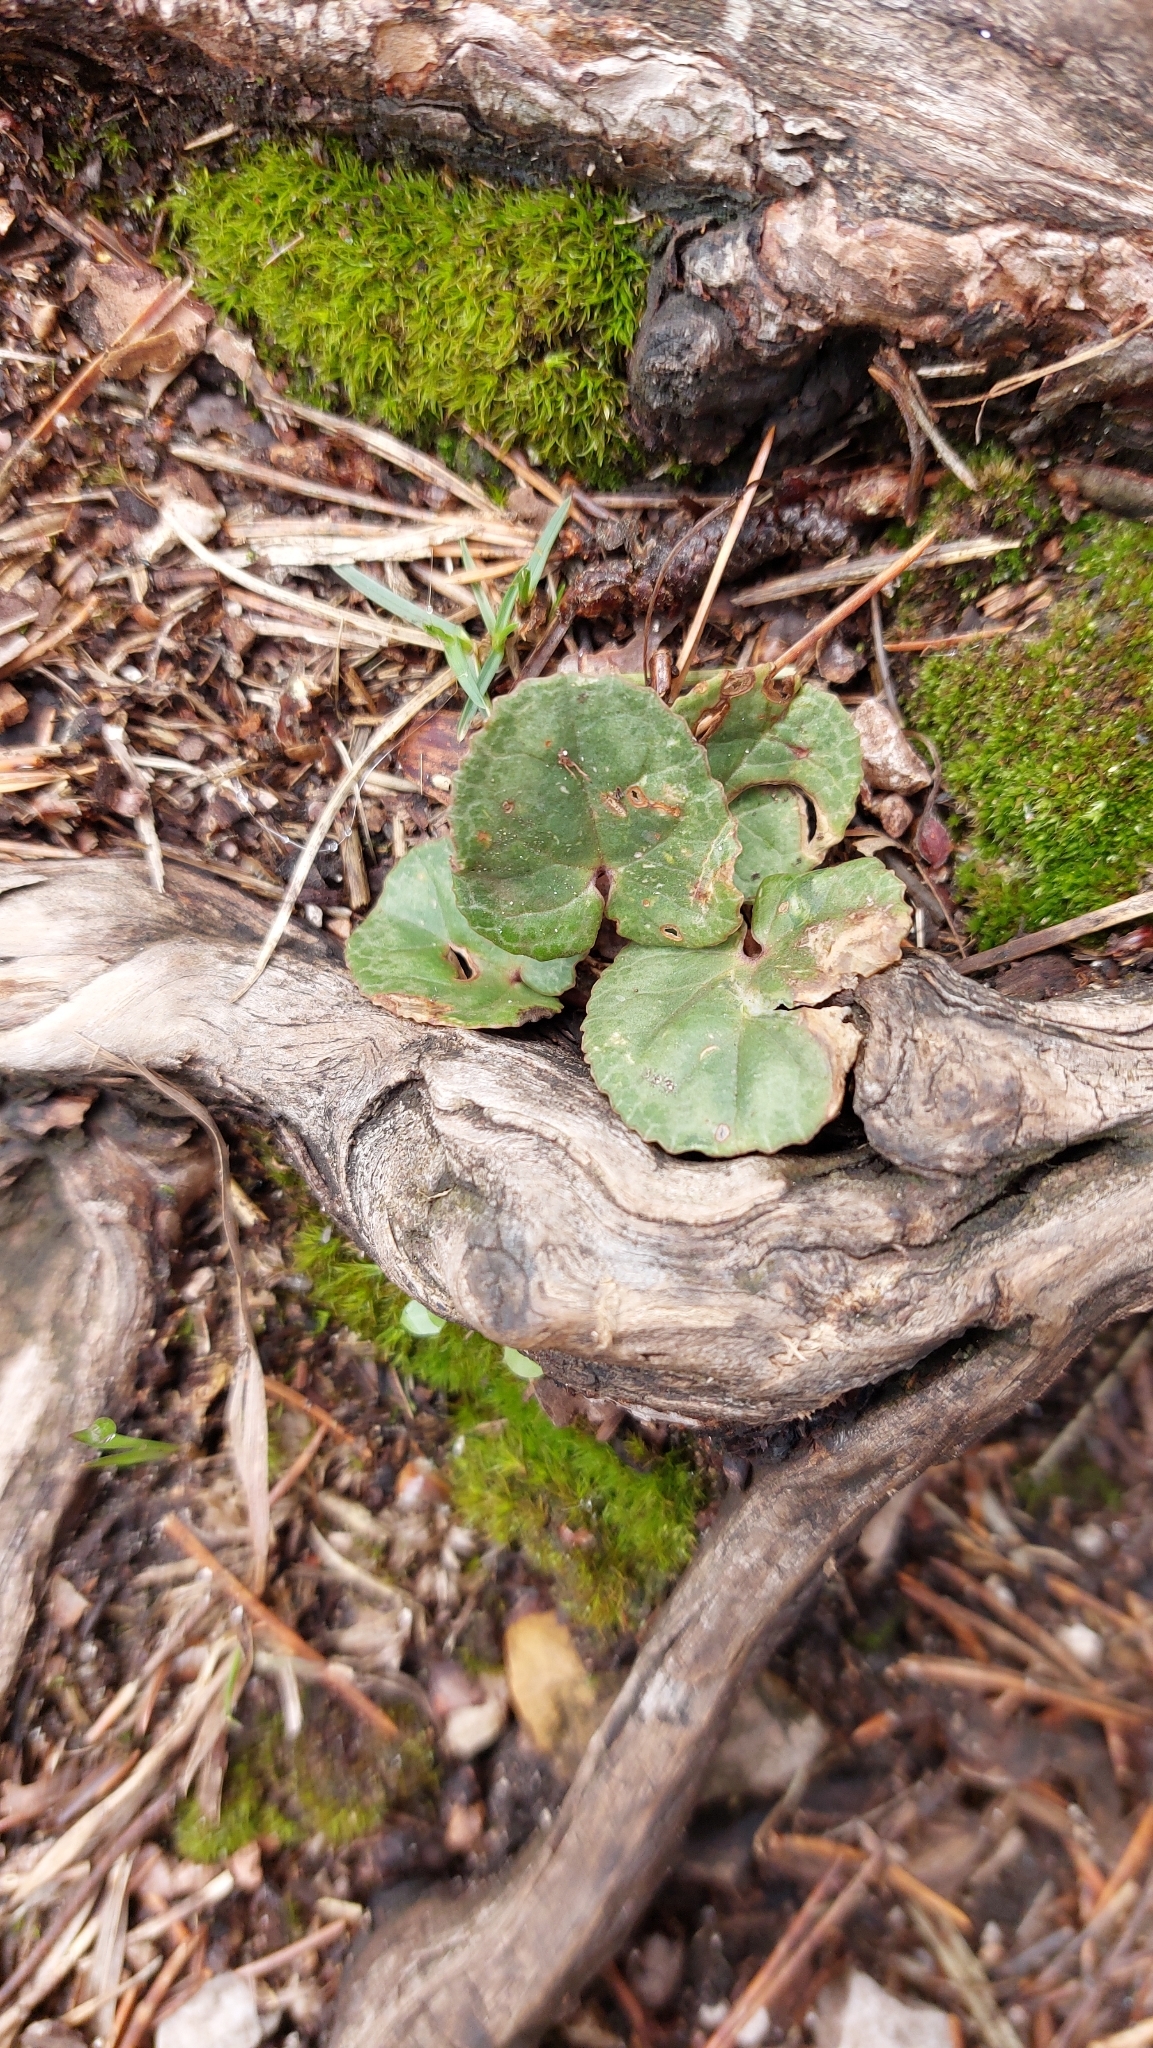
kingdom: Plantae
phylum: Tracheophyta
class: Magnoliopsida
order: Ericales
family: Primulaceae
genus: Cyclamen
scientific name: Cyclamen purpurascens
